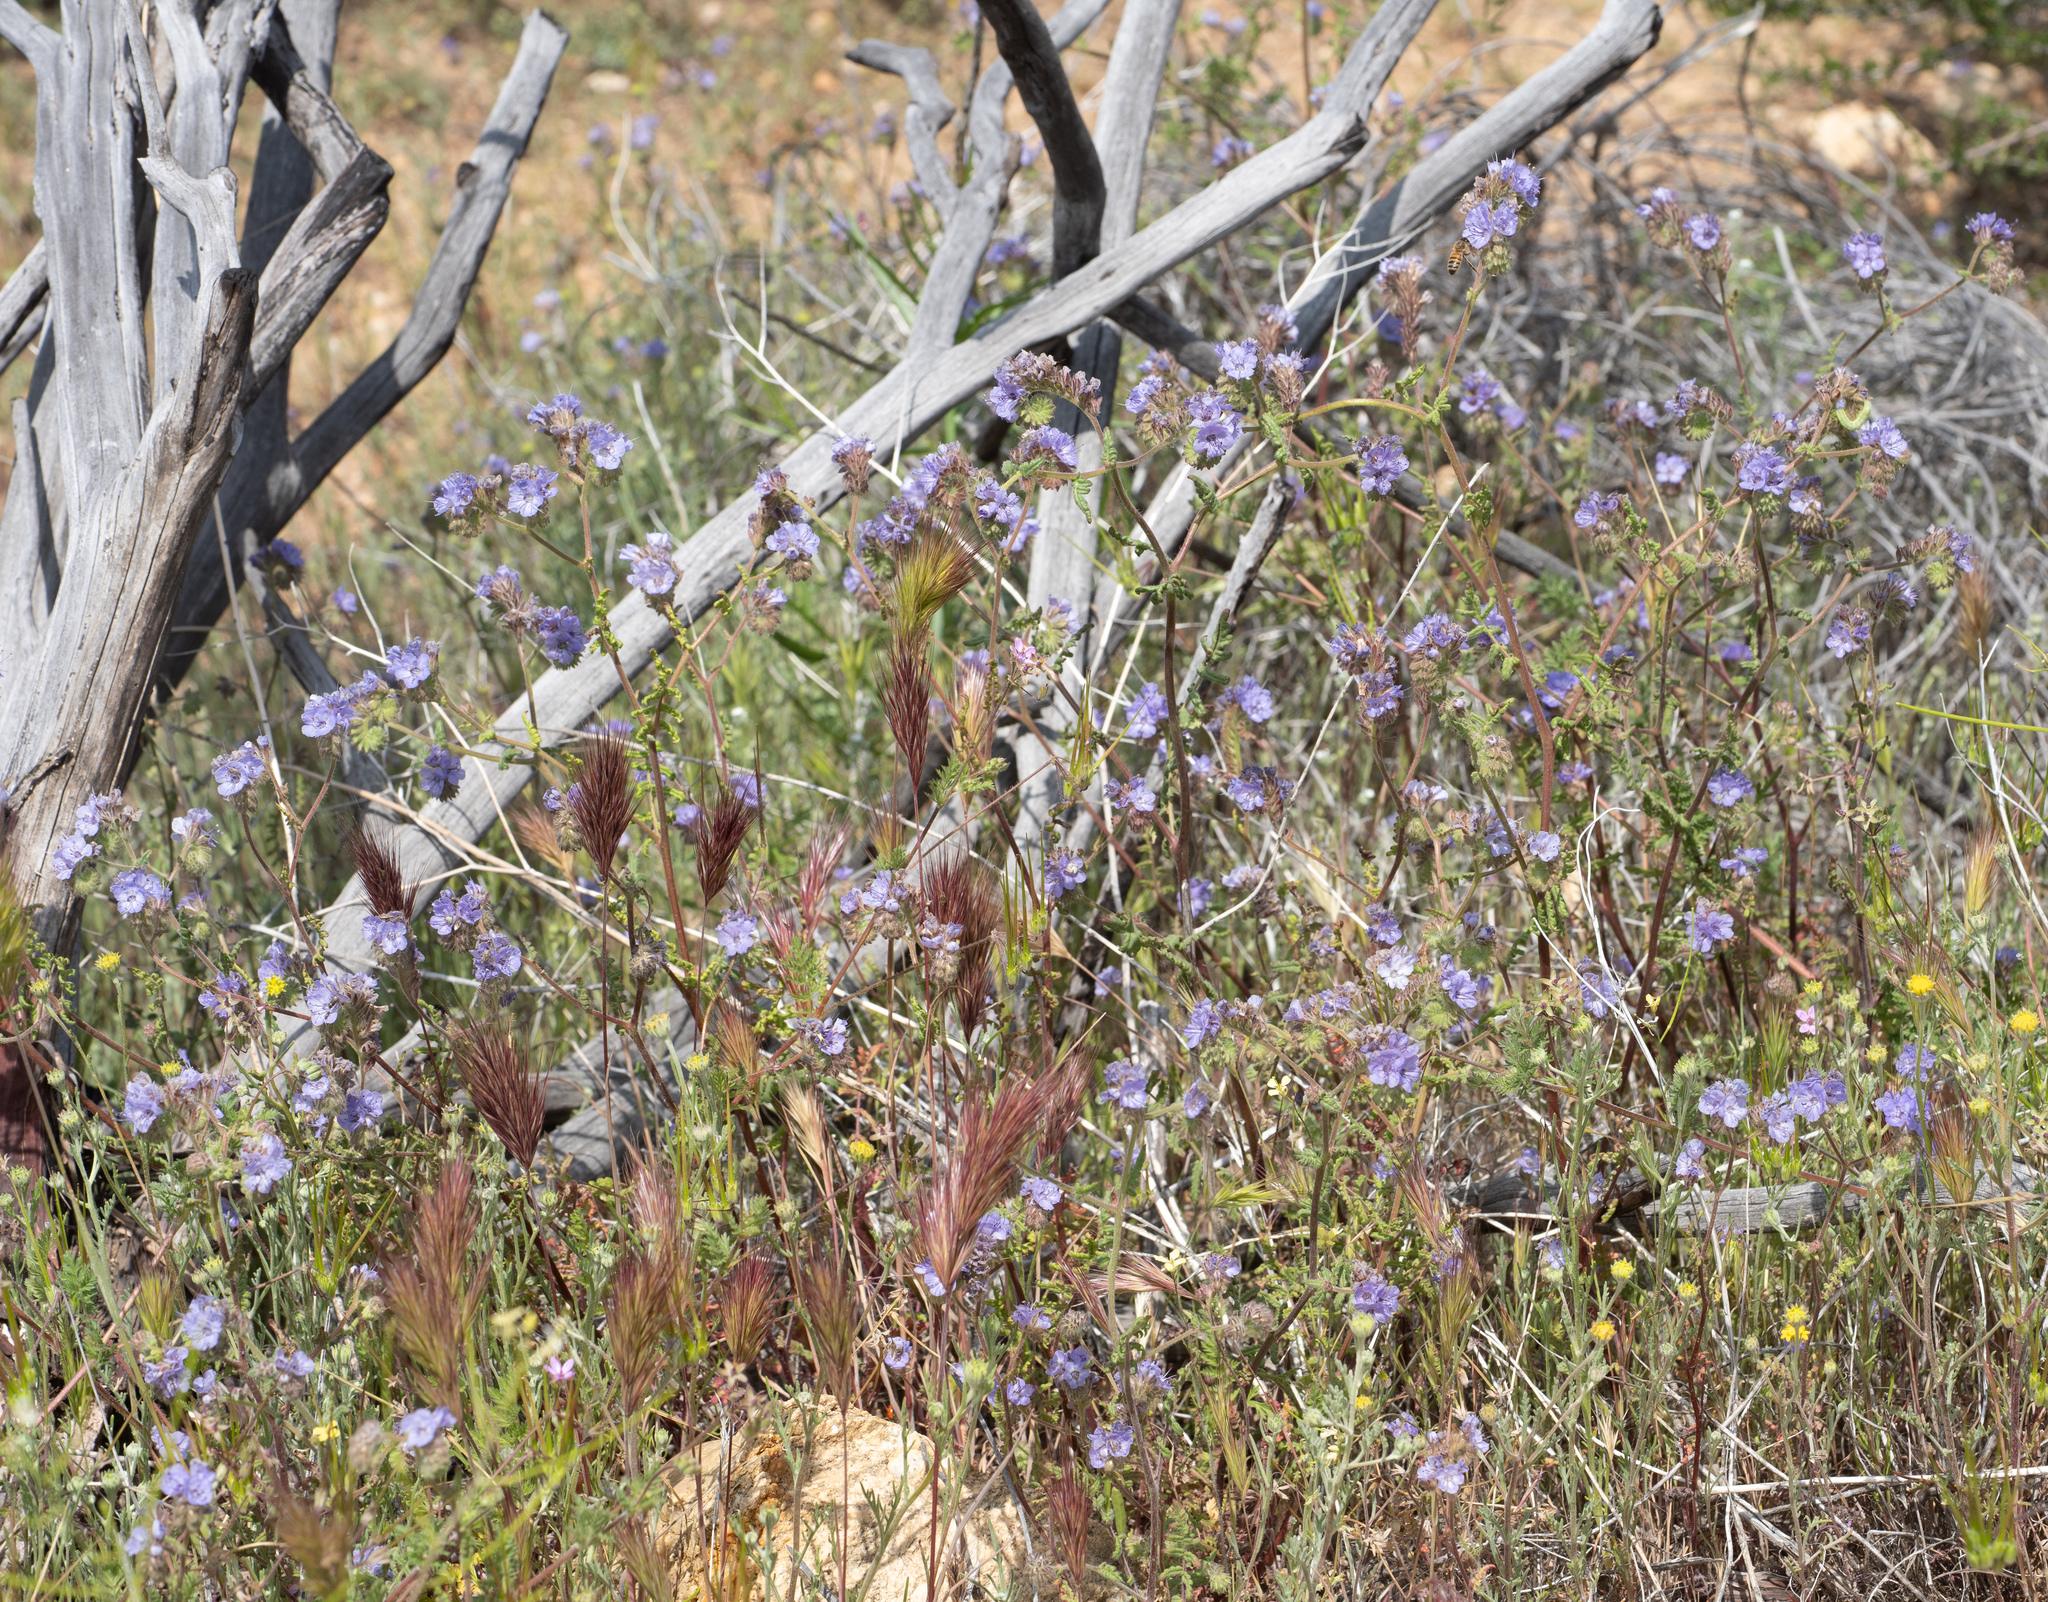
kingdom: Plantae
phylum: Tracheophyta
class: Magnoliopsida
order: Boraginales
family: Hydrophyllaceae
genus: Phacelia
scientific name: Phacelia distans
